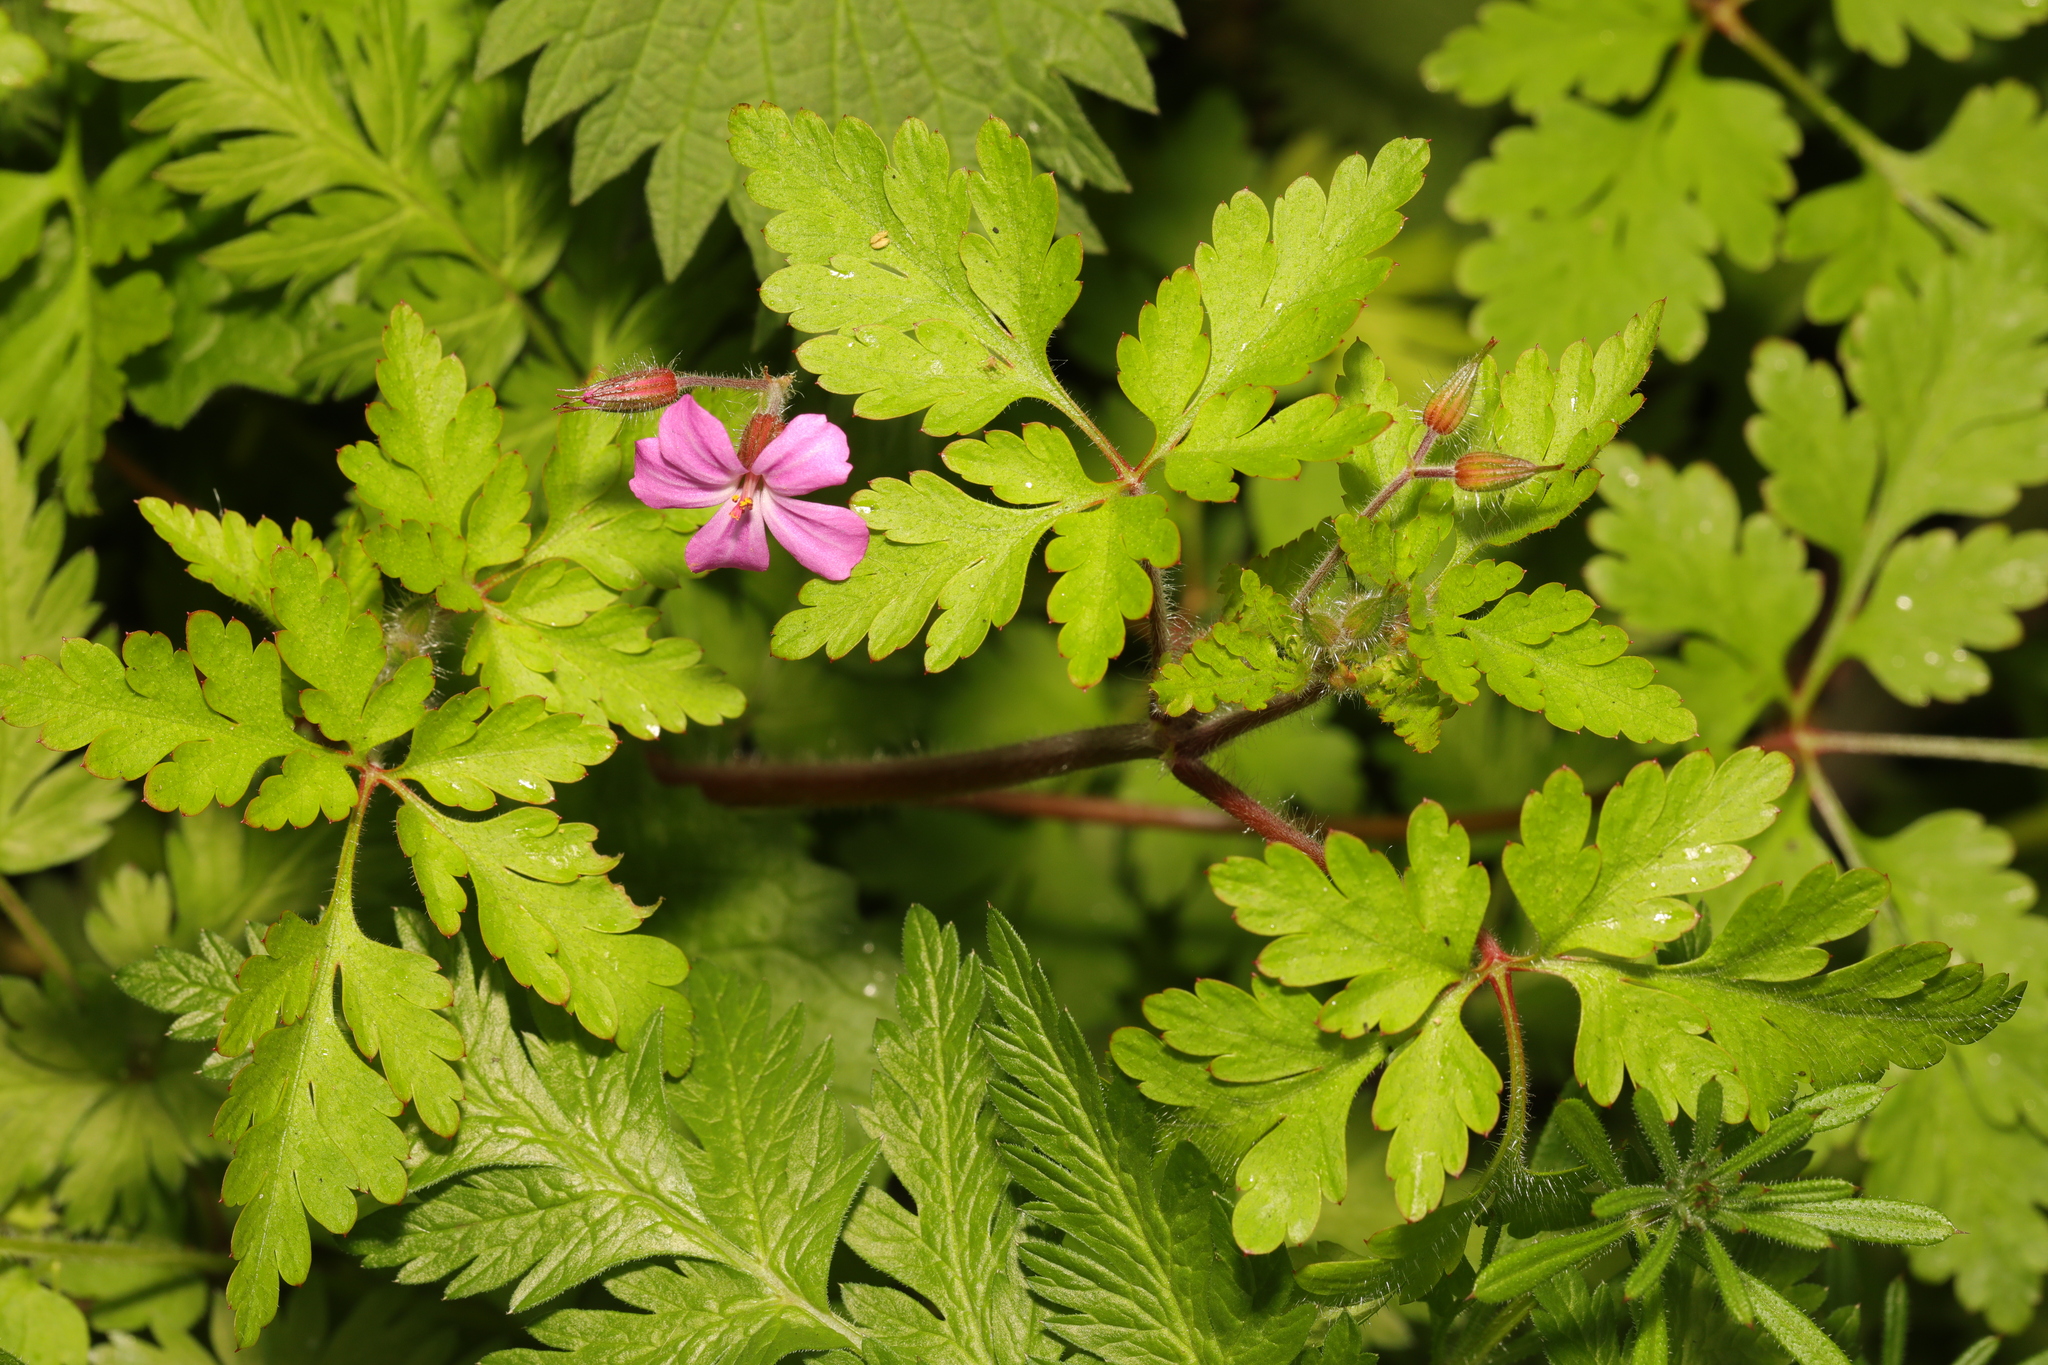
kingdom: Plantae
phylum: Tracheophyta
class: Magnoliopsida
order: Geraniales
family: Geraniaceae
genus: Geranium
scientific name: Geranium robertianum
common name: Herb-robert
